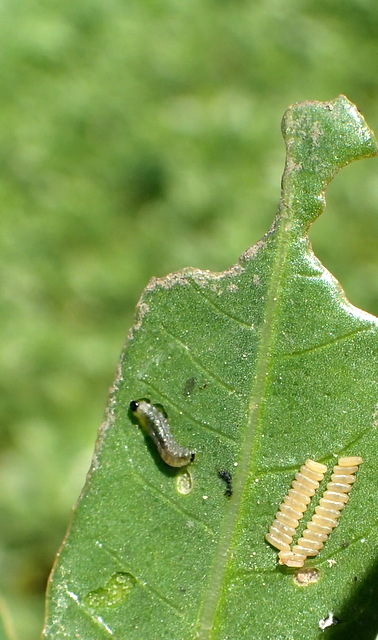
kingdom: Animalia
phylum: Arthropoda
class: Insecta
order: Coleoptera
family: Chrysomelidae
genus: Agasicles
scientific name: Agasicles hygrophila
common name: Alligatorweed flea beetle
